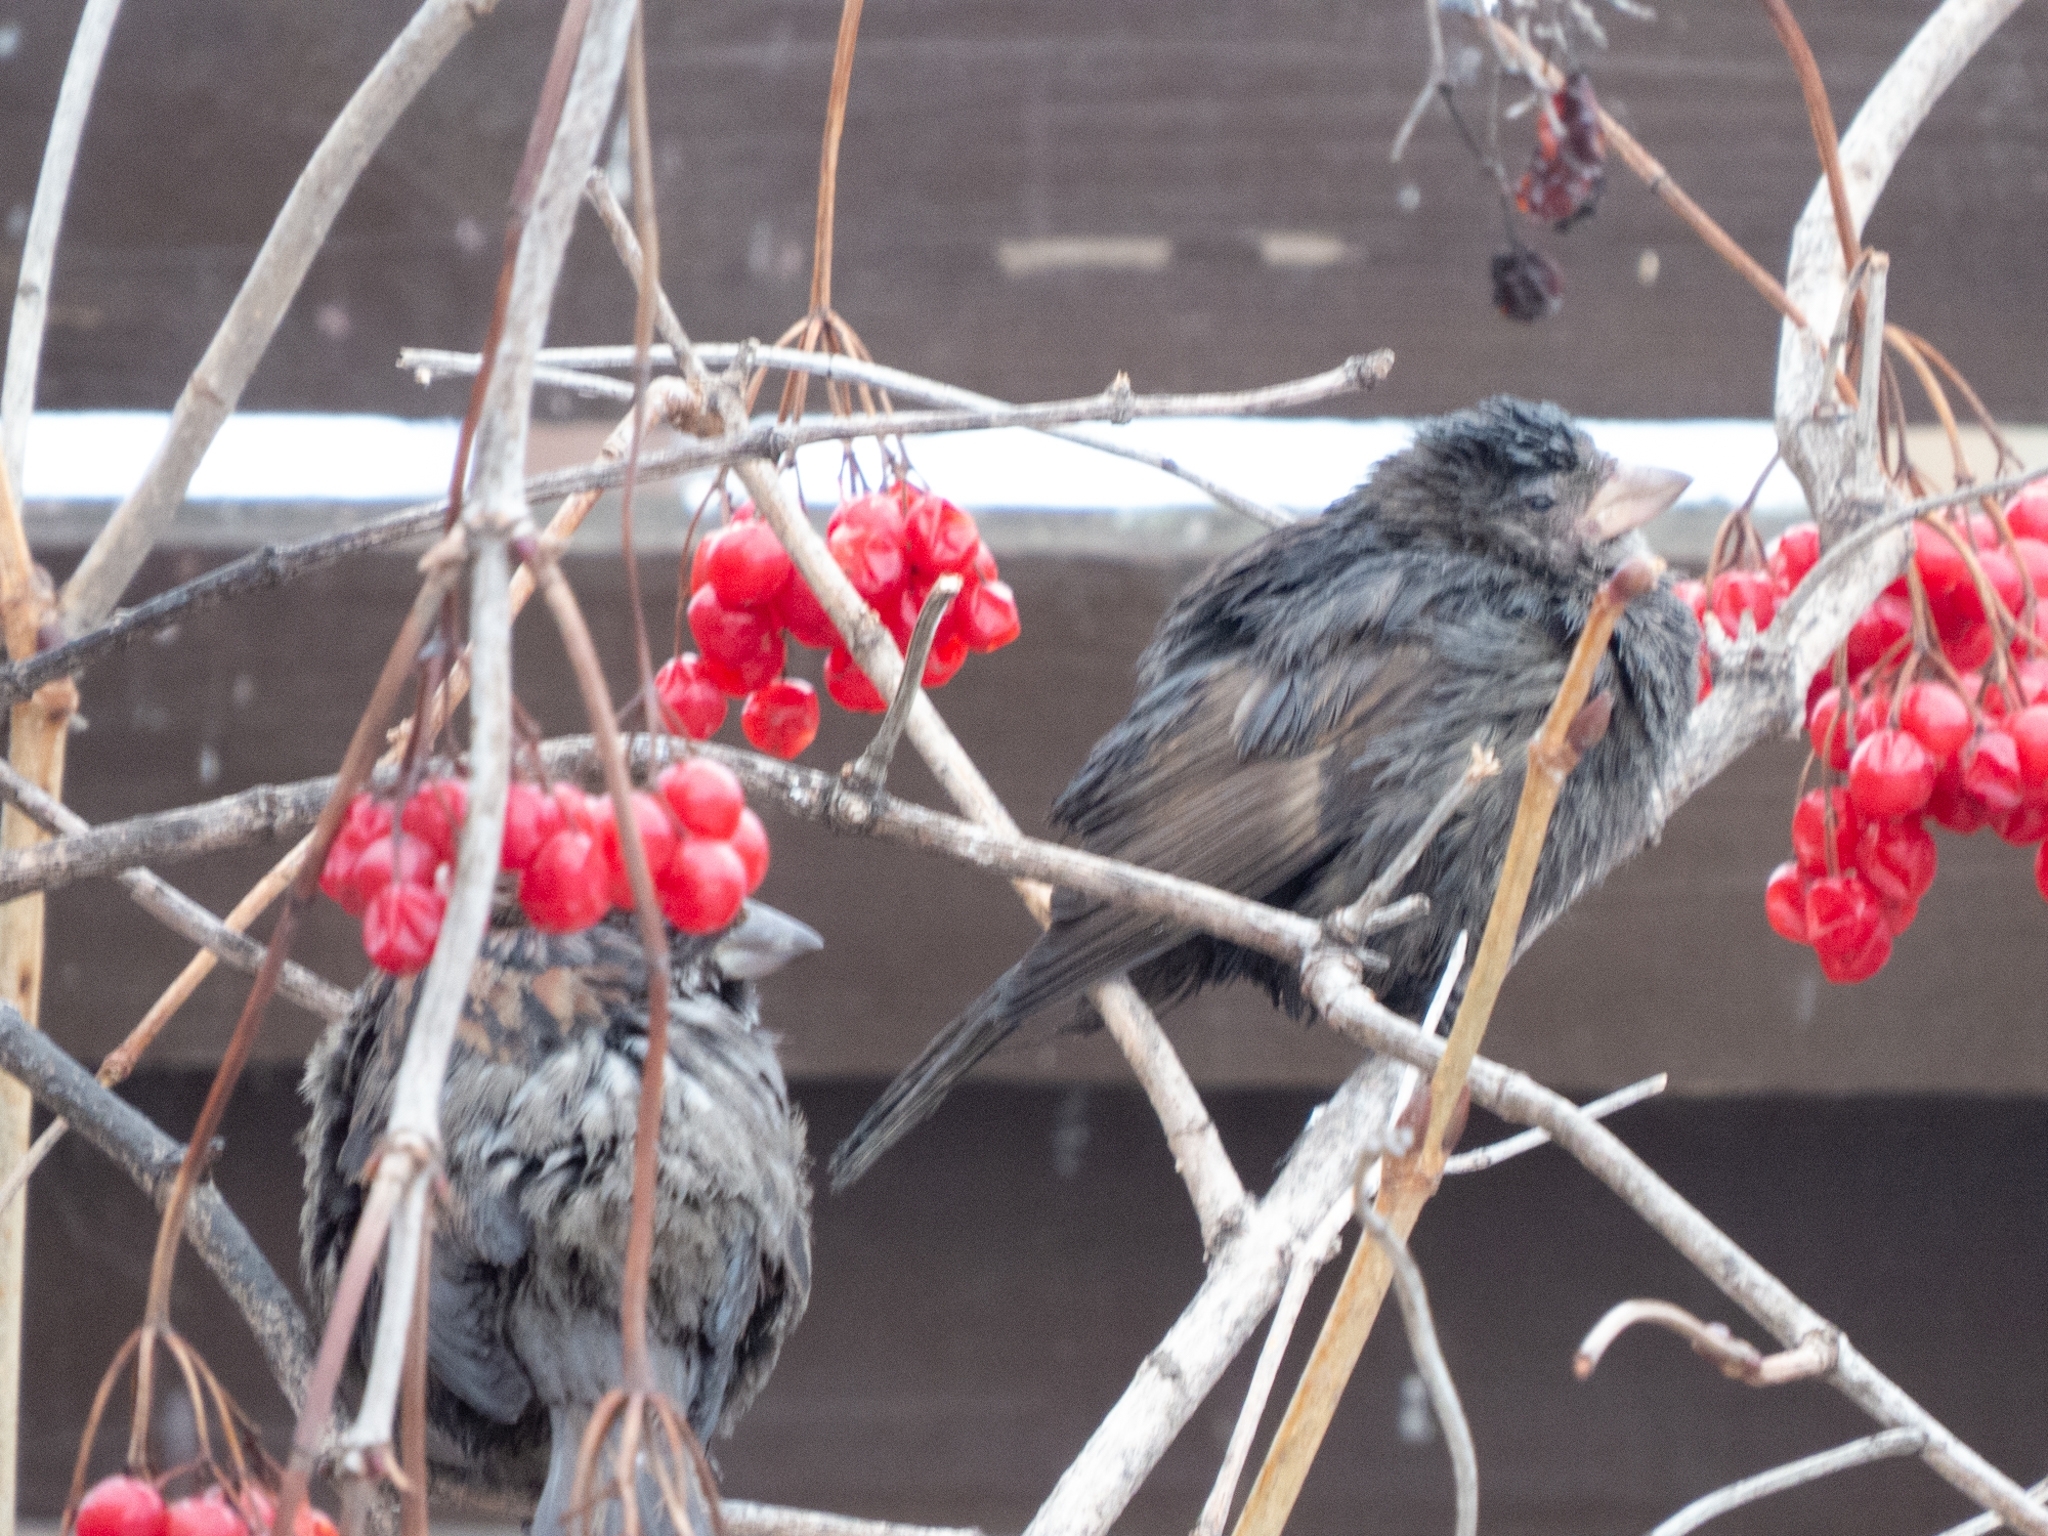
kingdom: Animalia
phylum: Chordata
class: Aves
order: Passeriformes
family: Passeridae
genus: Passer
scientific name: Passer domesticus
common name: House sparrow
